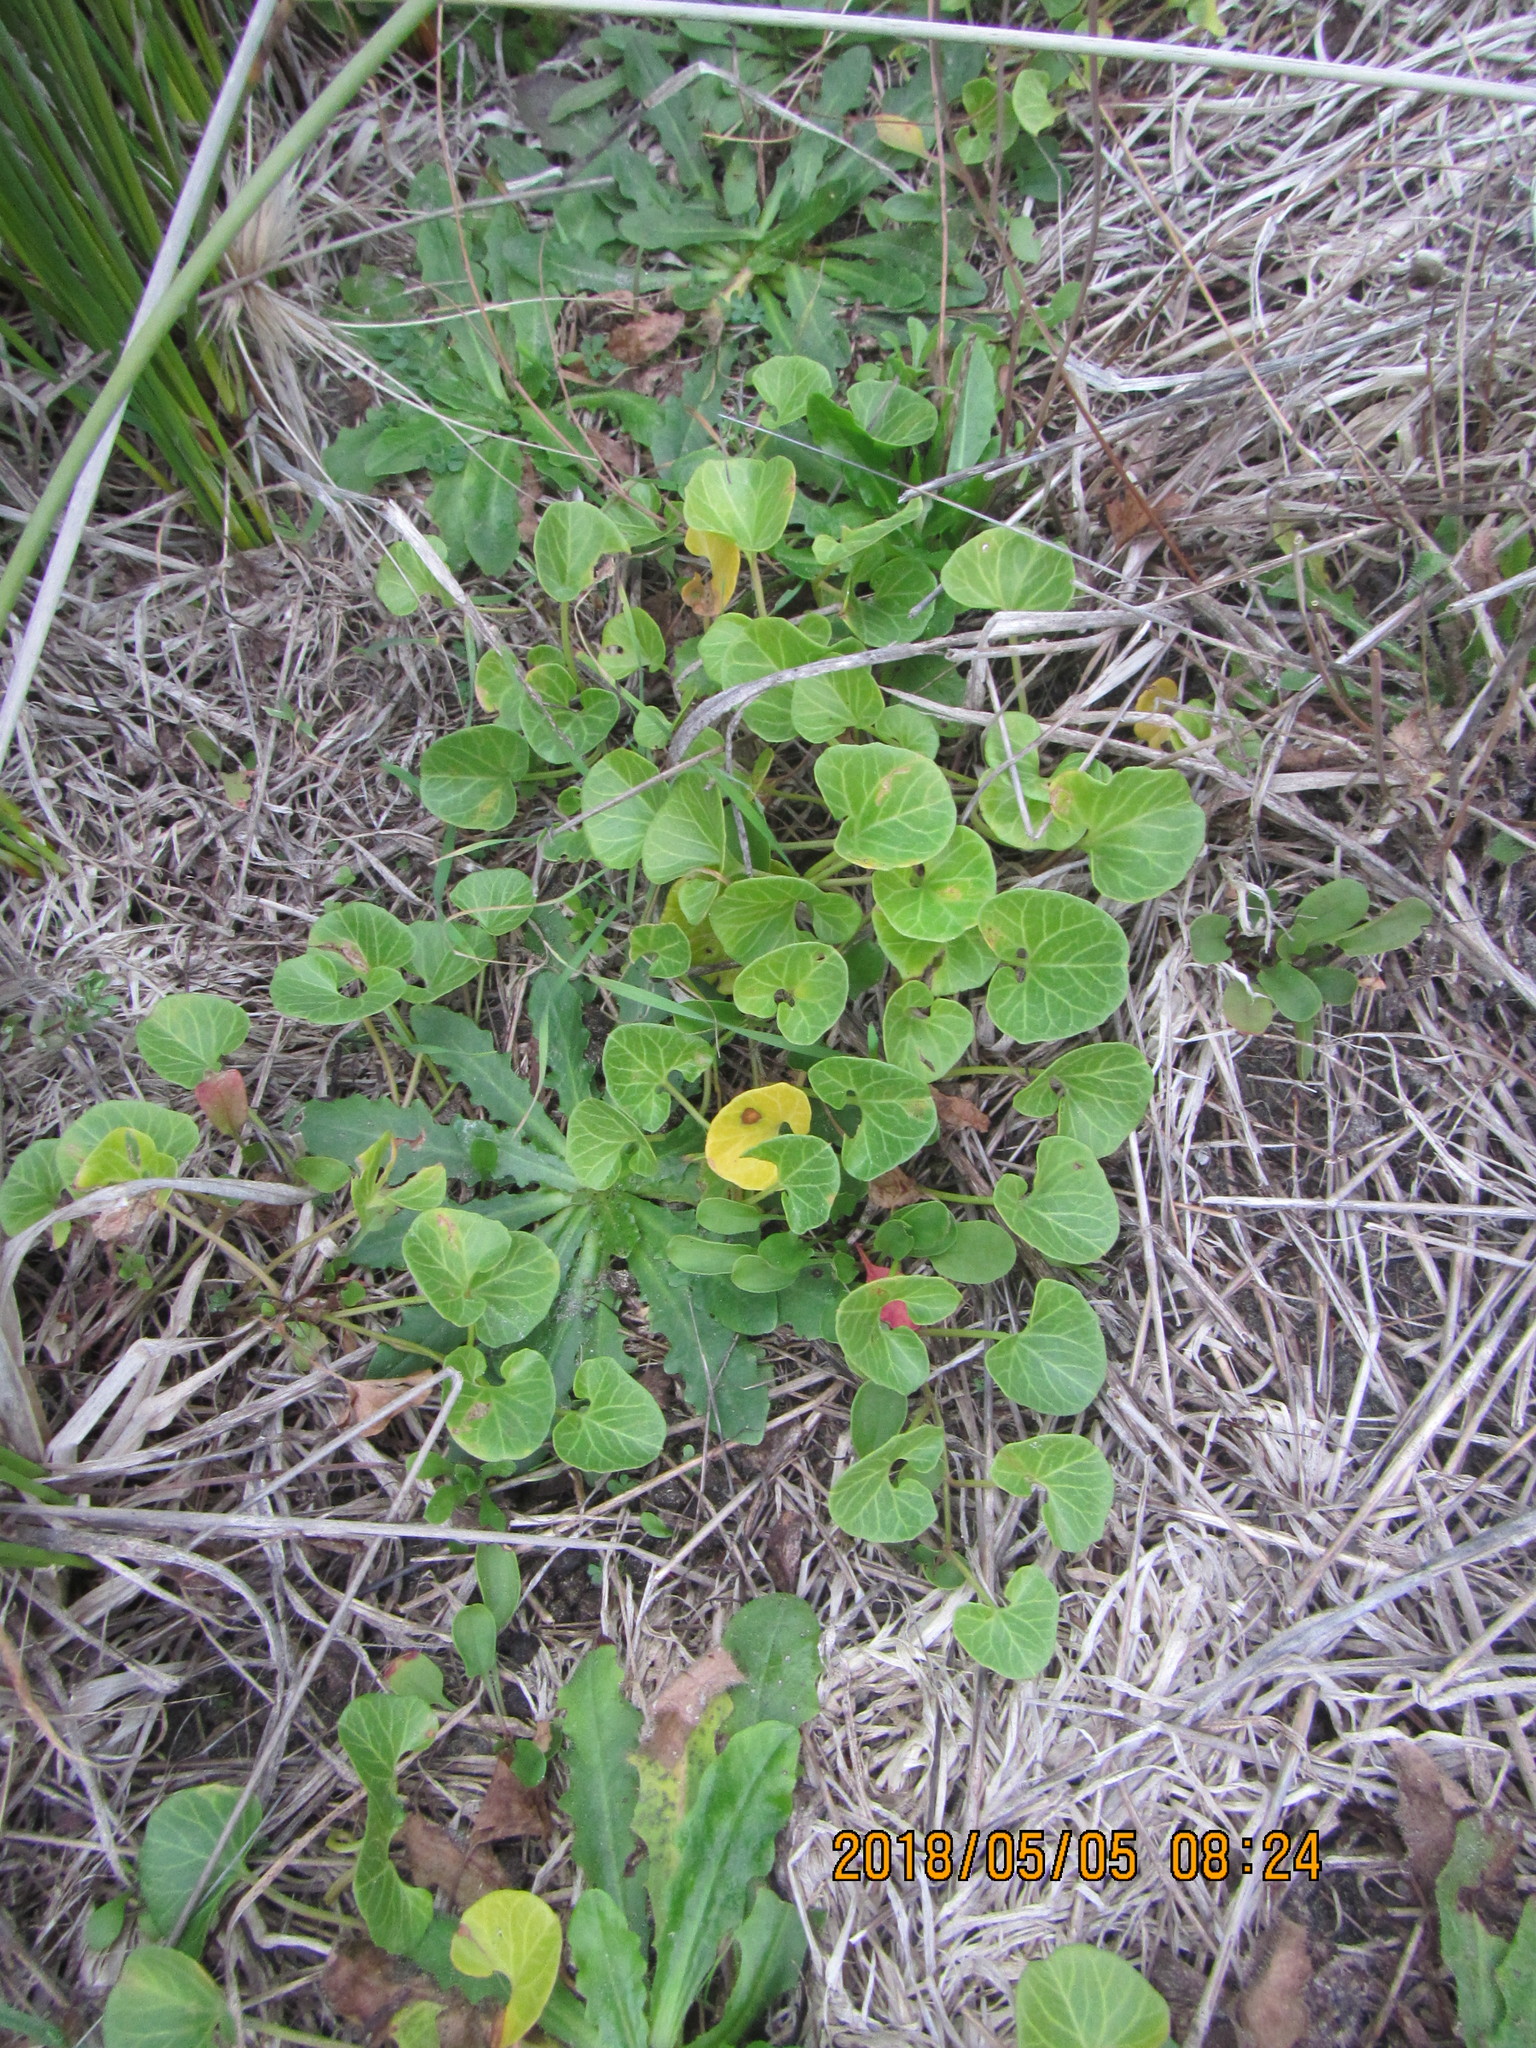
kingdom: Plantae
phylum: Tracheophyta
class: Magnoliopsida
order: Solanales
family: Convolvulaceae
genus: Calystegia
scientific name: Calystegia soldanella
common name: Sea bindweed
